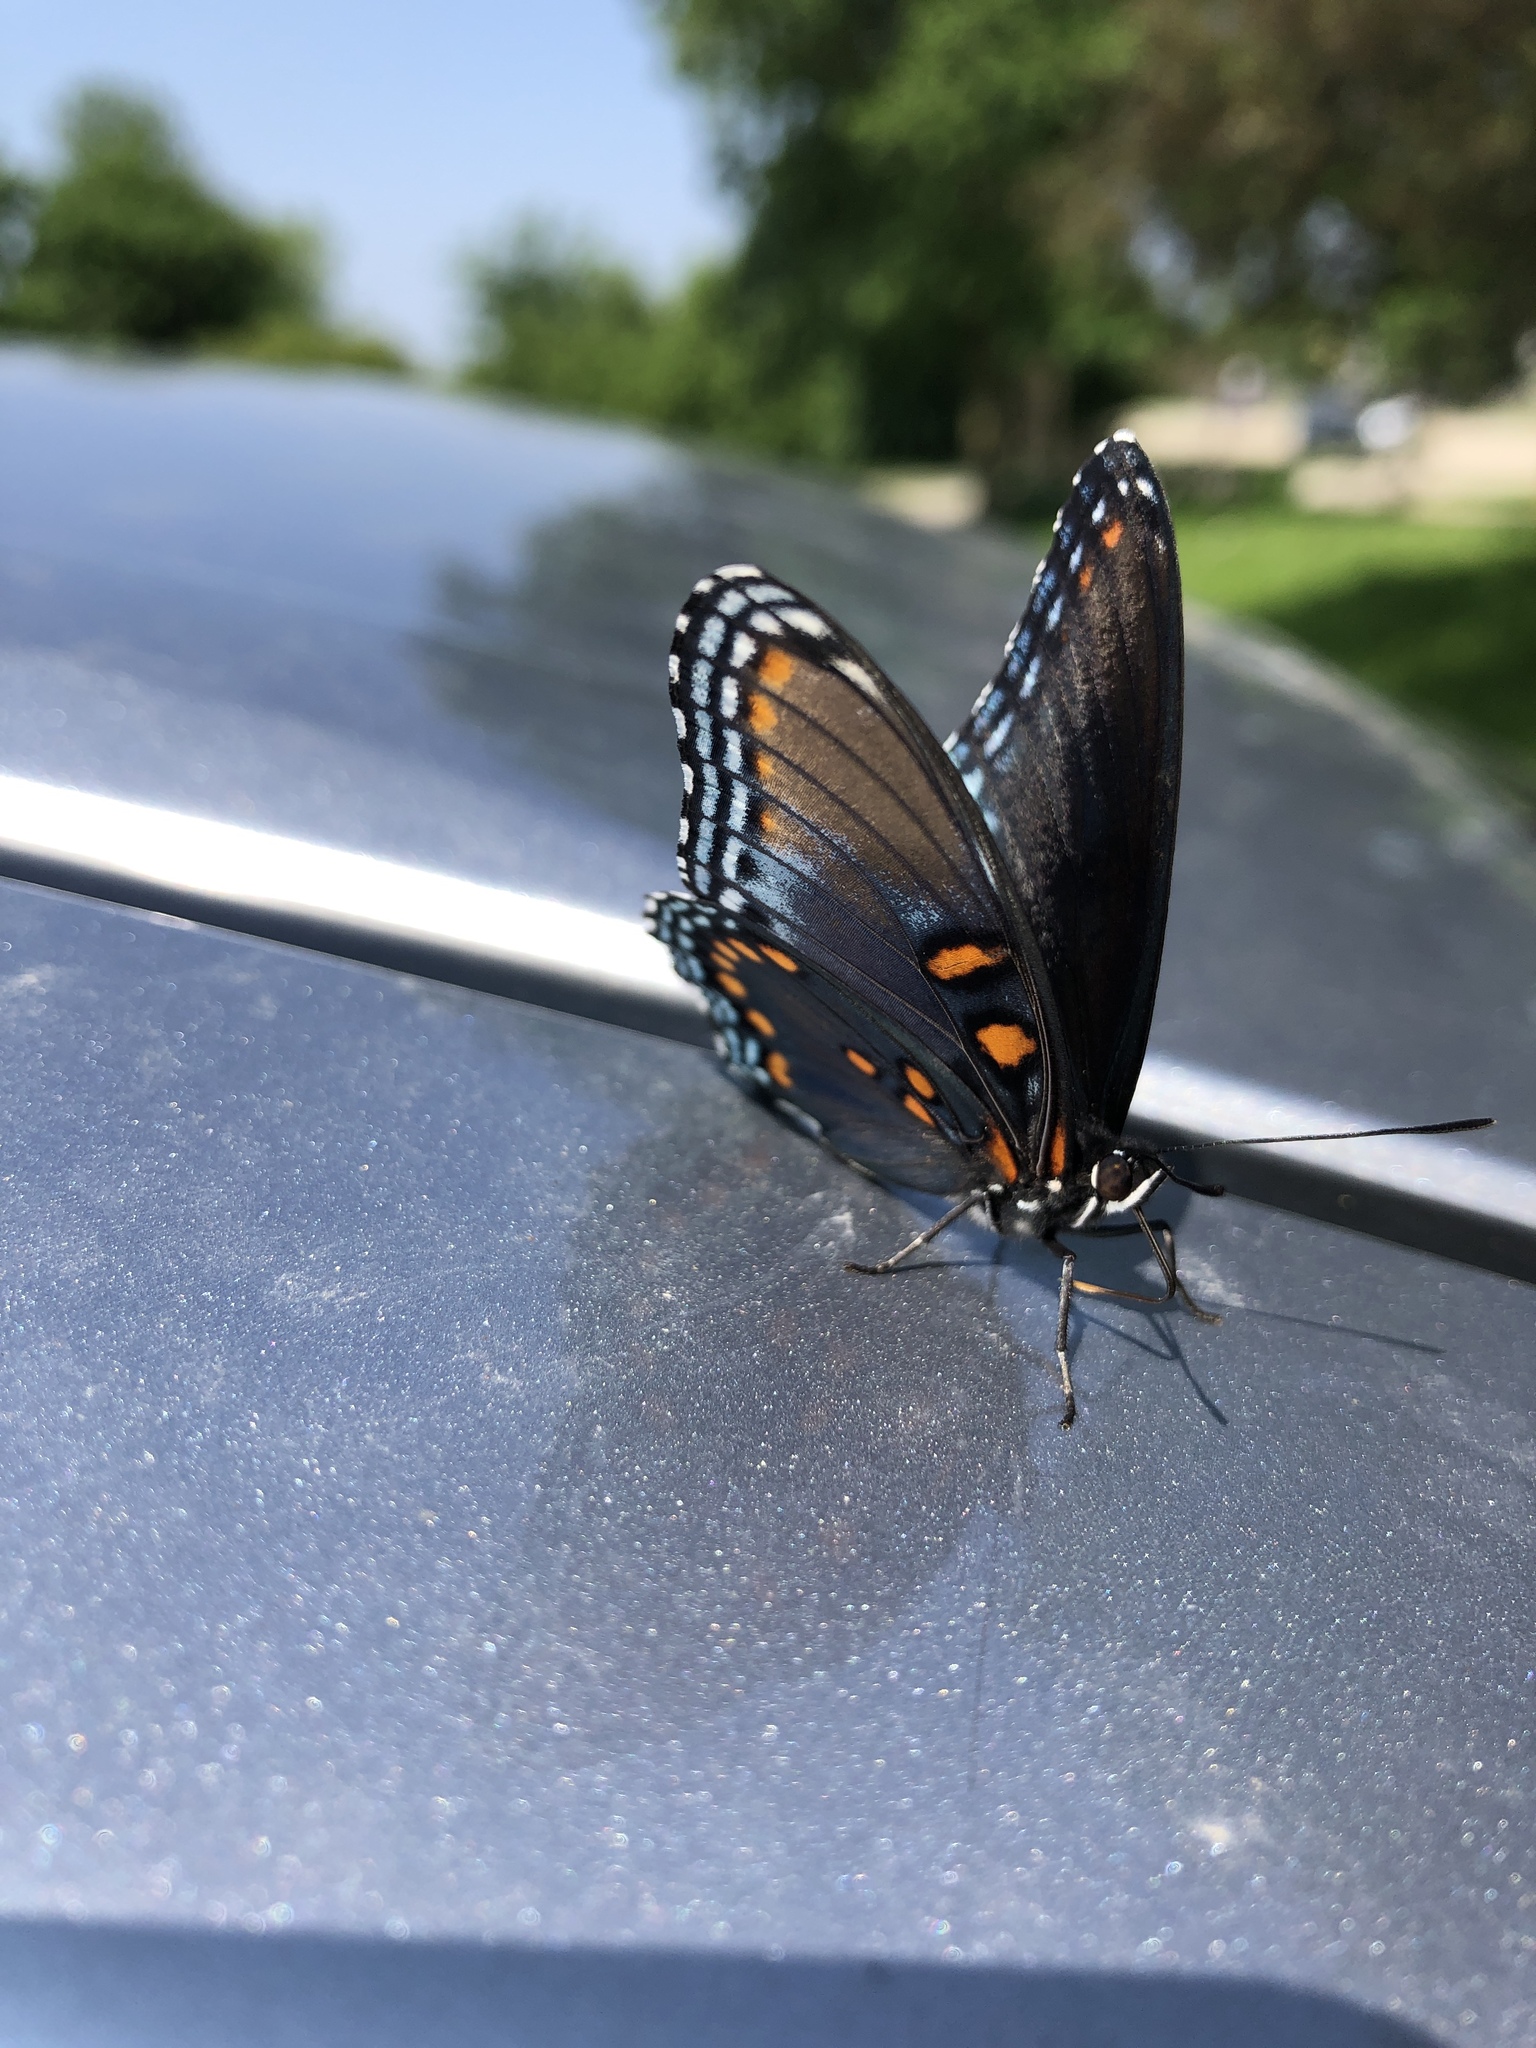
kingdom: Animalia
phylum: Arthropoda
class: Insecta
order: Lepidoptera
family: Nymphalidae
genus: Limenitis
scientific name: Limenitis arthemis
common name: Red-spotted admiral
